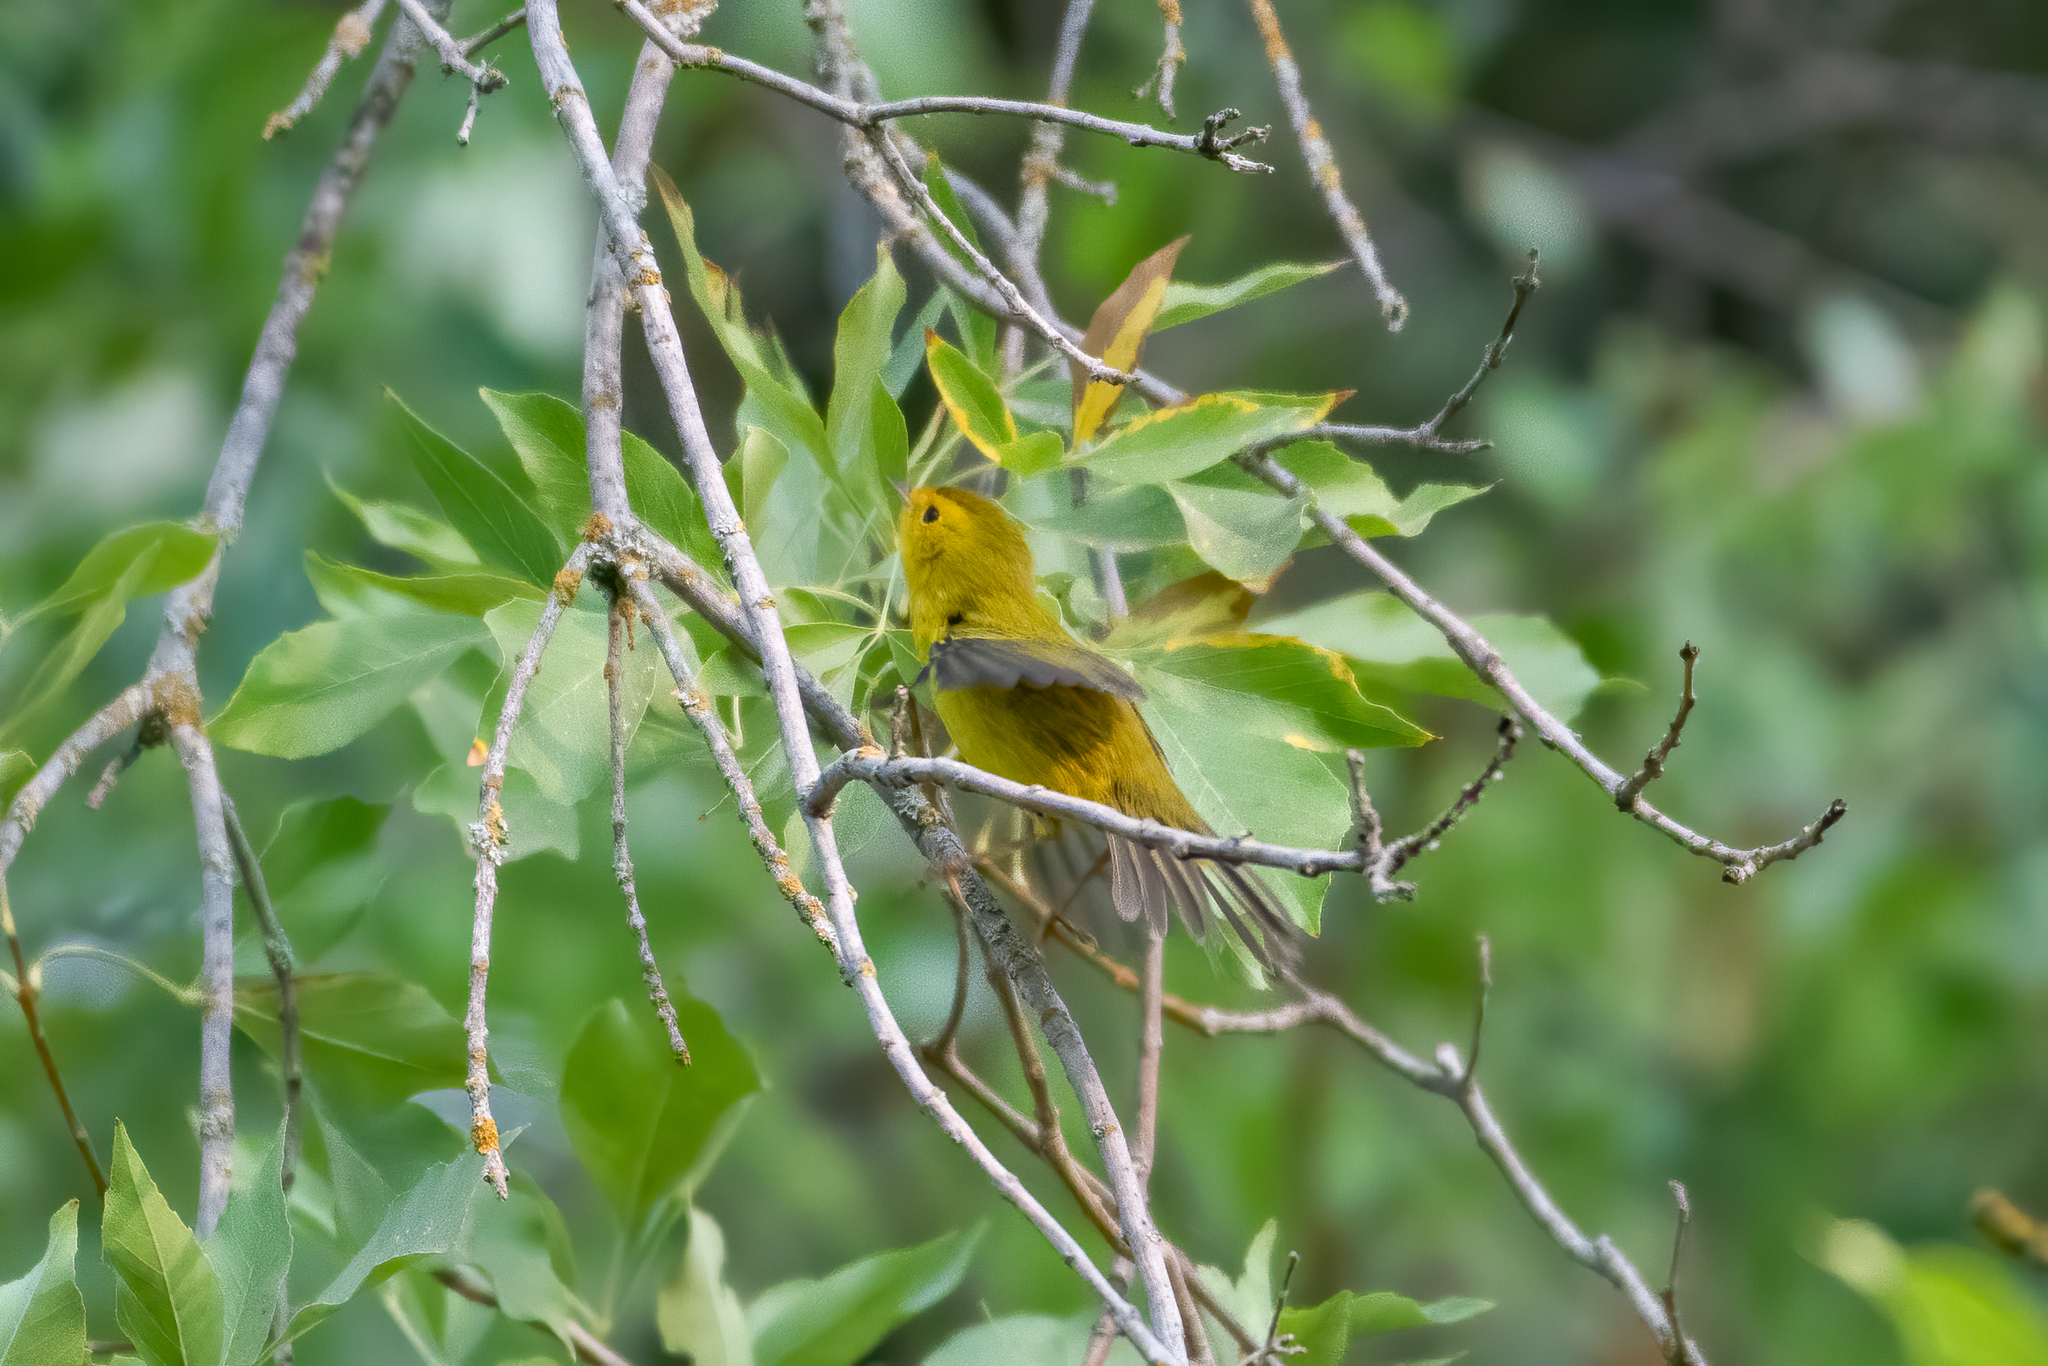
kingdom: Animalia
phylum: Chordata
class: Aves
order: Passeriformes
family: Parulidae
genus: Cardellina
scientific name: Cardellina pusilla
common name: Wilson's warbler
